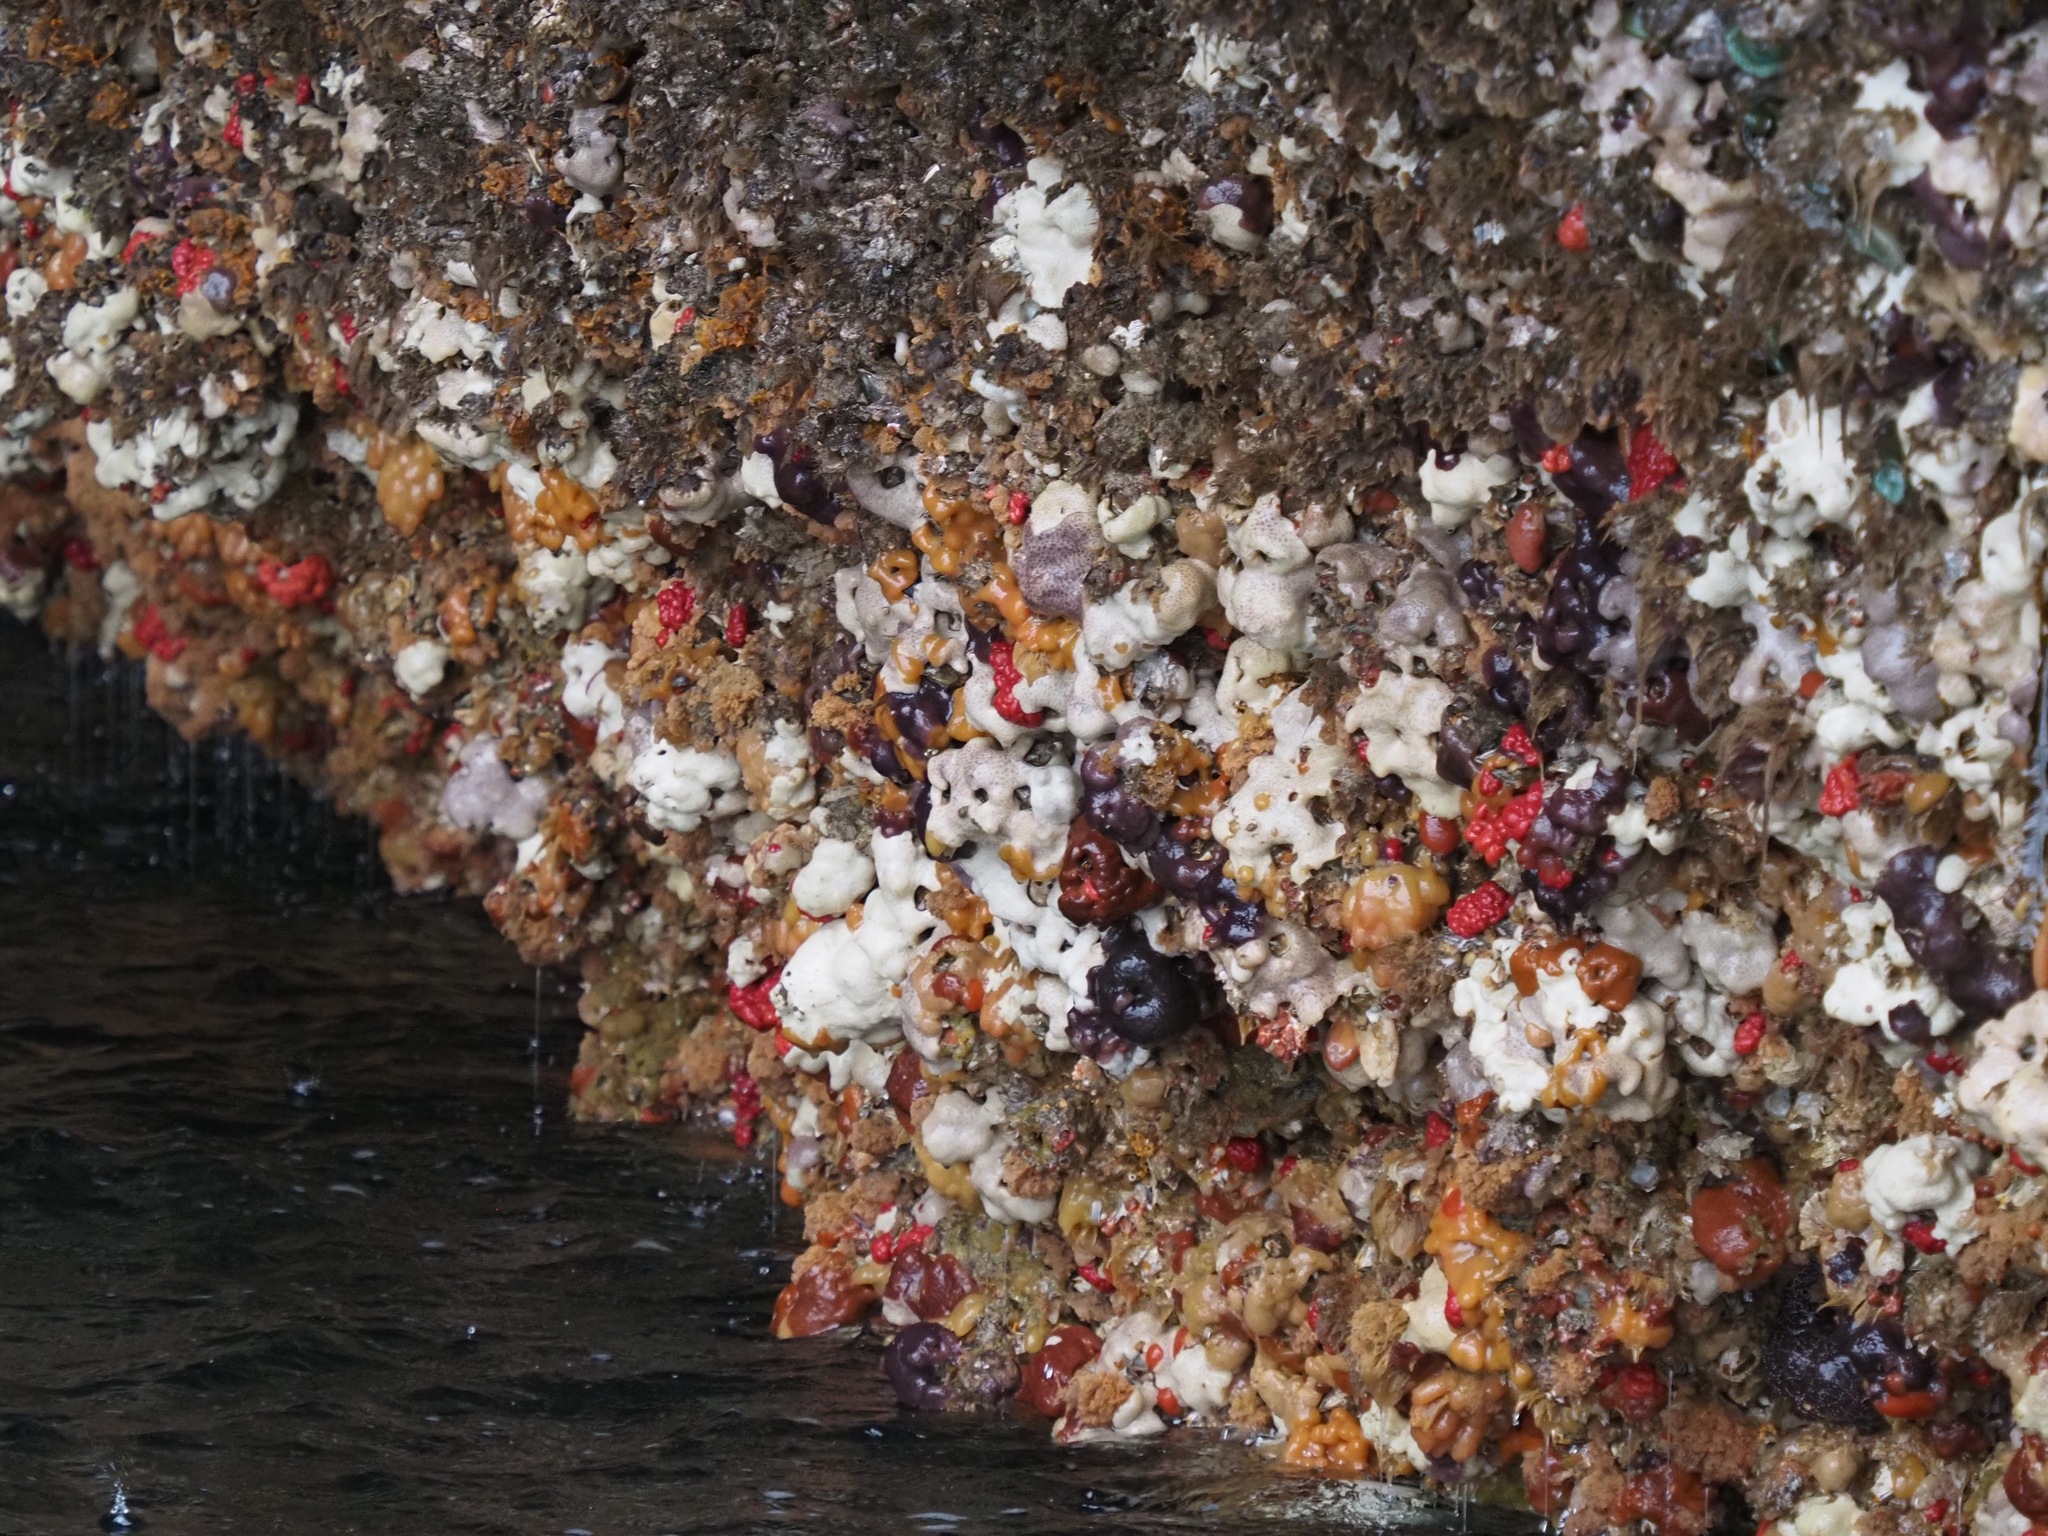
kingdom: Animalia
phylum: Chordata
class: Ascidiacea
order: Aplousobranchia
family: Didemnidae
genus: Didemnum
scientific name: Didemnum albidum
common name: Northern white crust
